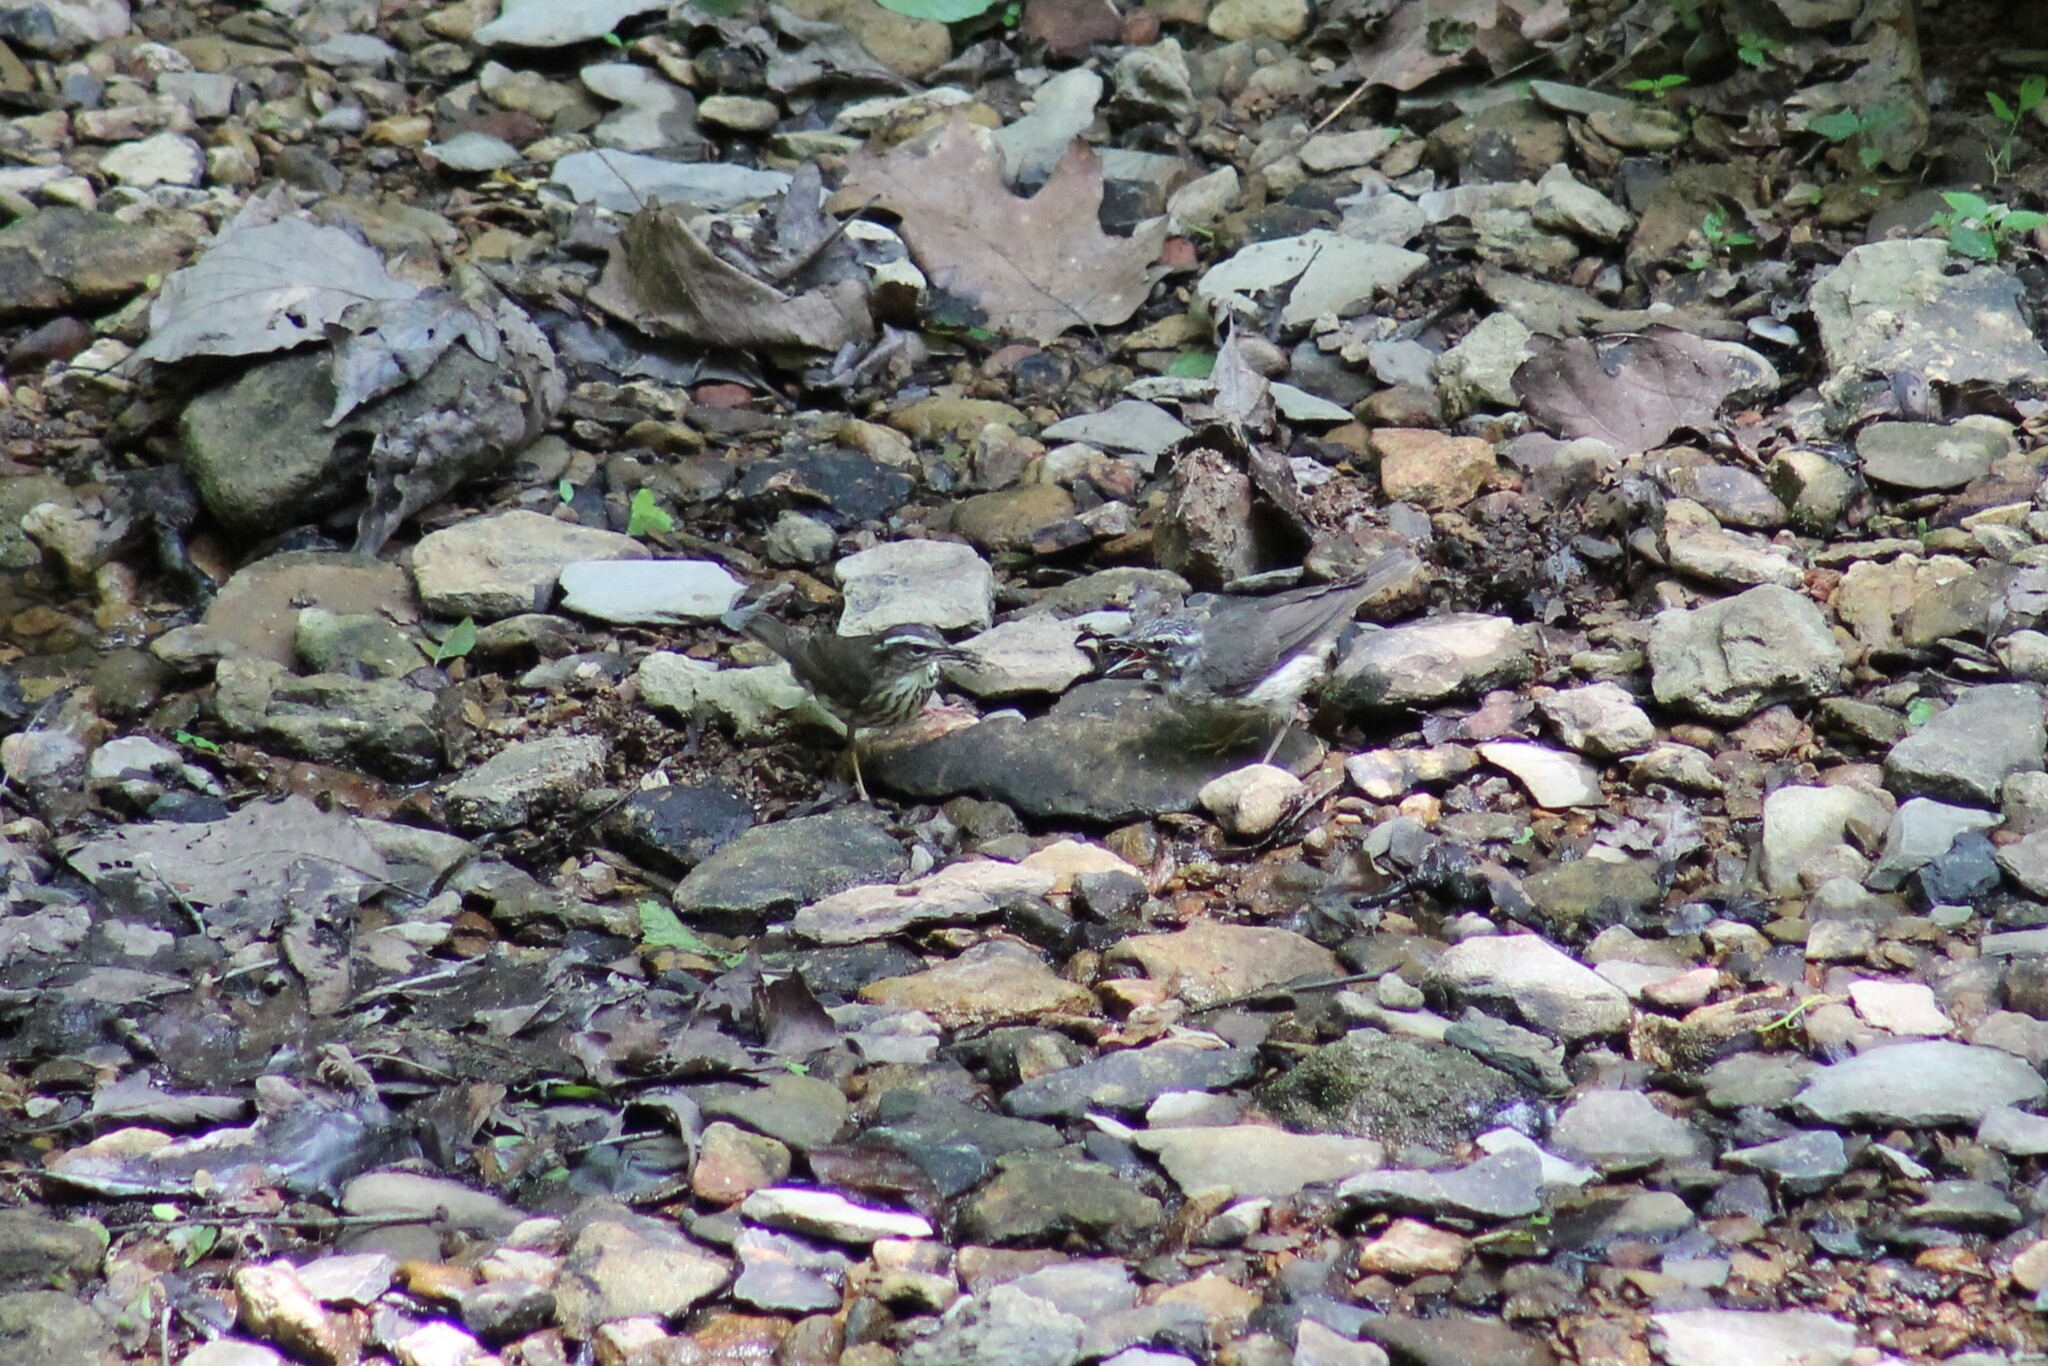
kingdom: Animalia
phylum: Chordata
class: Aves
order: Passeriformes
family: Parulidae
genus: Parkesia
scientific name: Parkesia motacilla
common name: Louisiana waterthrush
